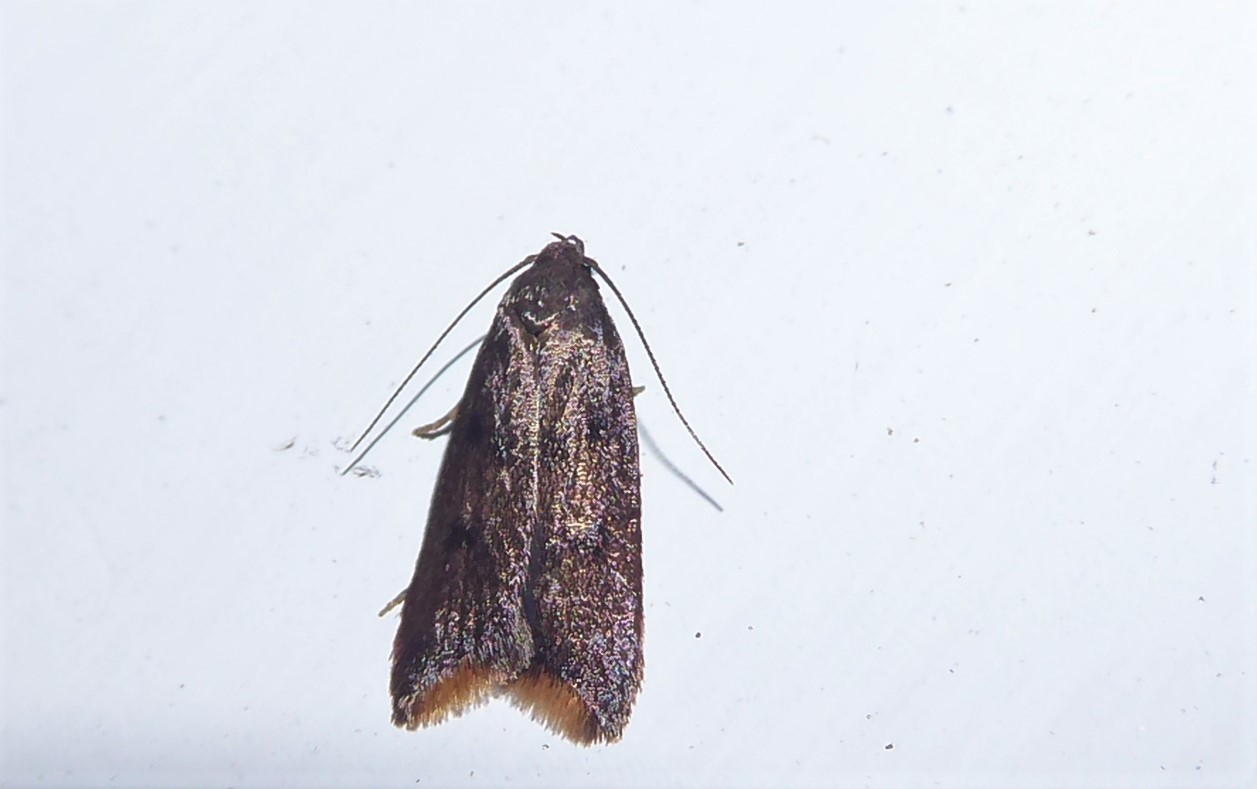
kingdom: Animalia
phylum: Arthropoda
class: Insecta
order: Lepidoptera
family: Oecophoridae
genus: Tachystola
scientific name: Tachystola acroxantha
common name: Ruddy streak
